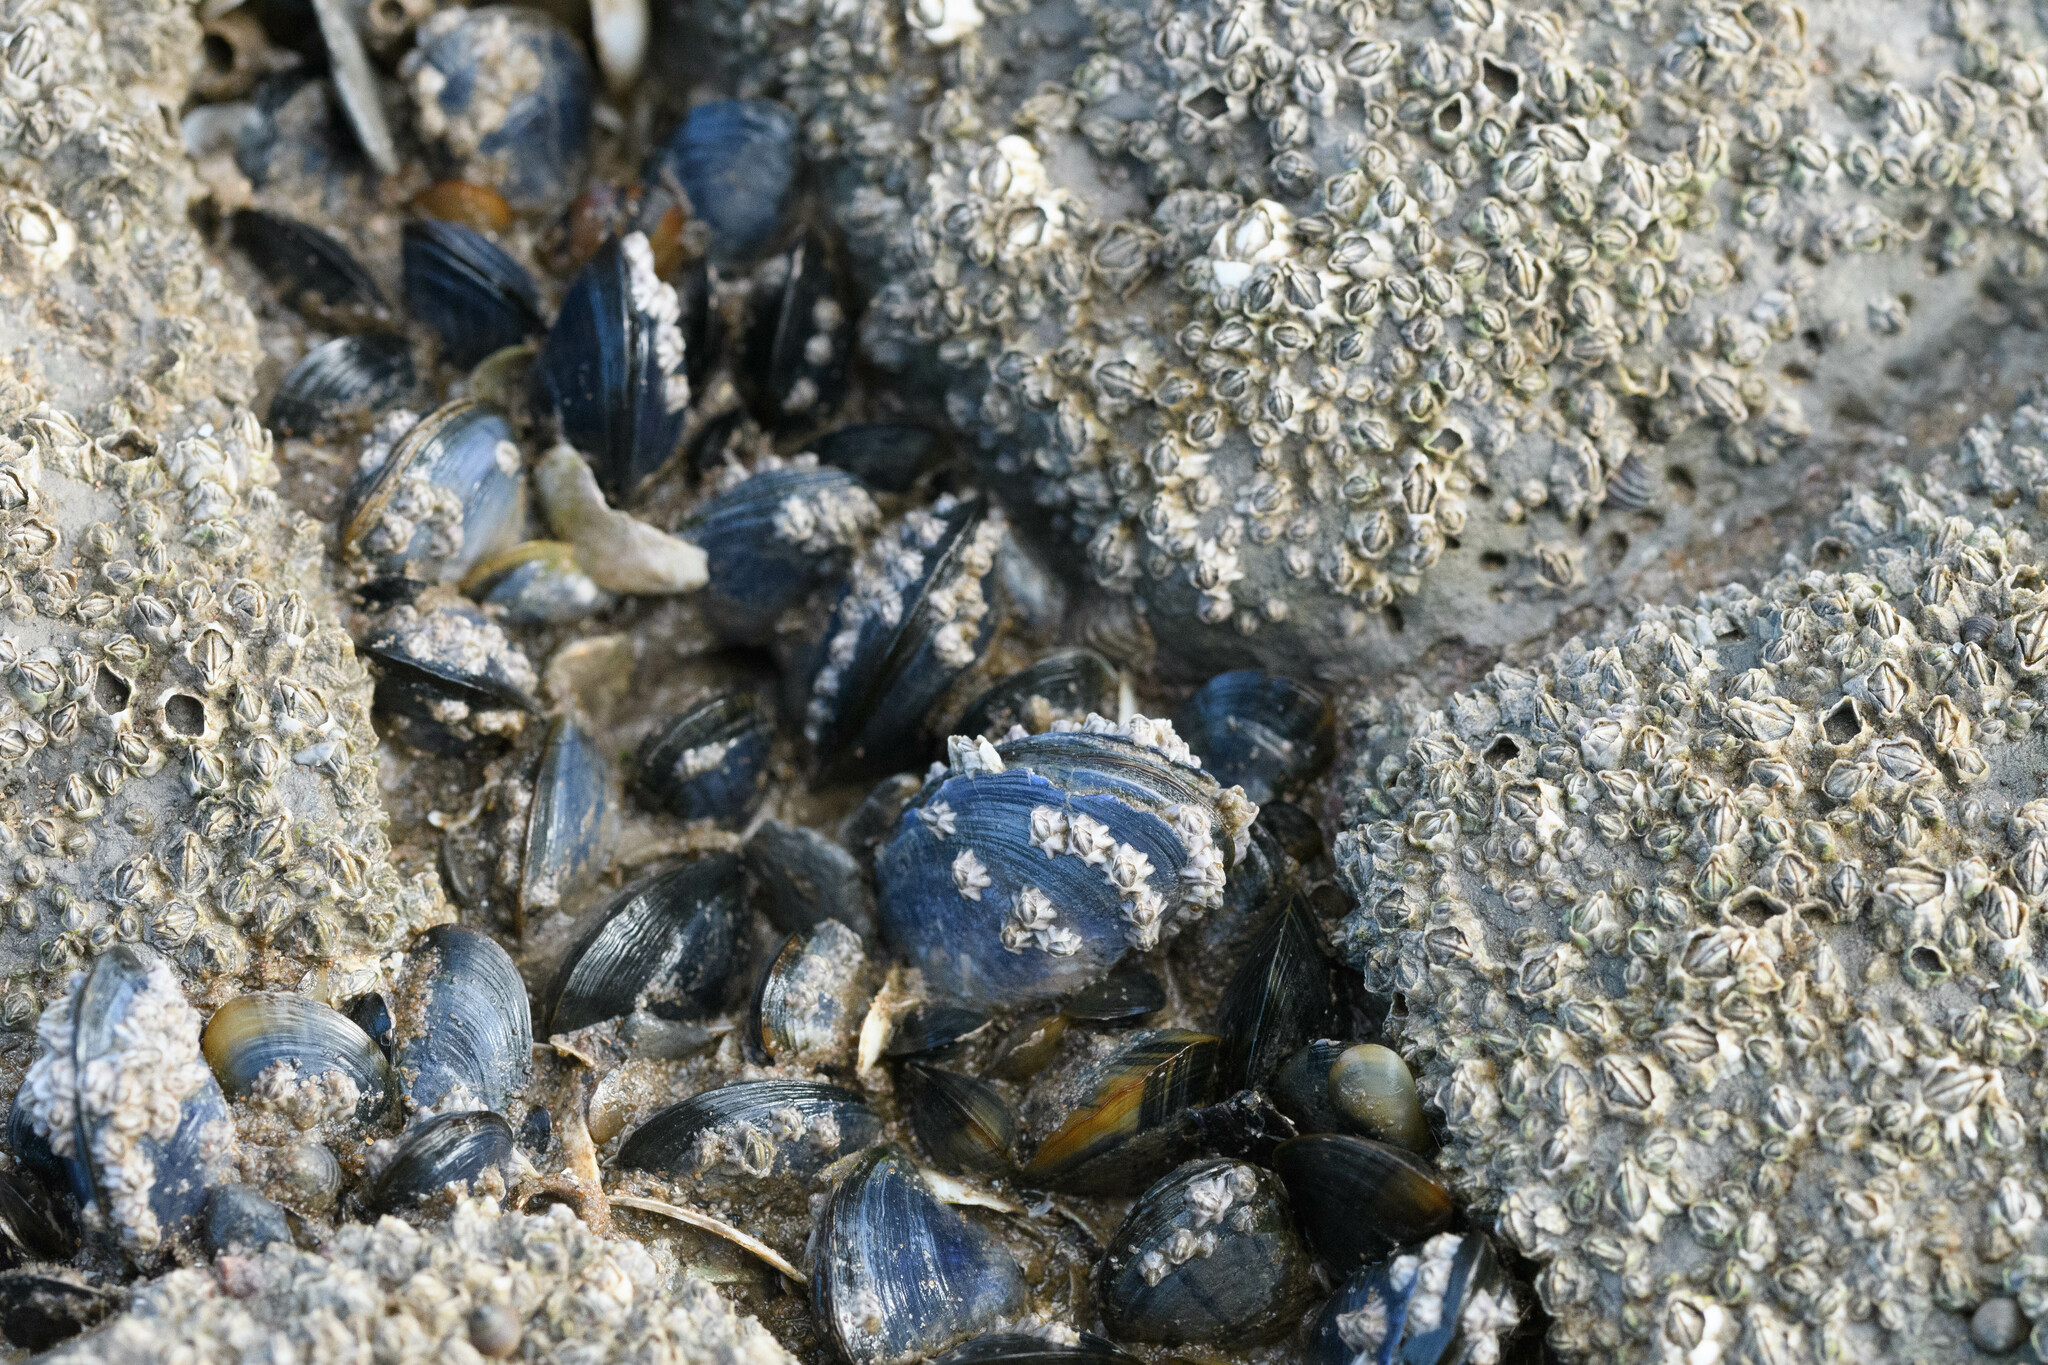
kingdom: Animalia
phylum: Mollusca
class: Bivalvia
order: Mytilida
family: Mytilidae
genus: Mytilus
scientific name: Mytilus edulis
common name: Blue mussel
